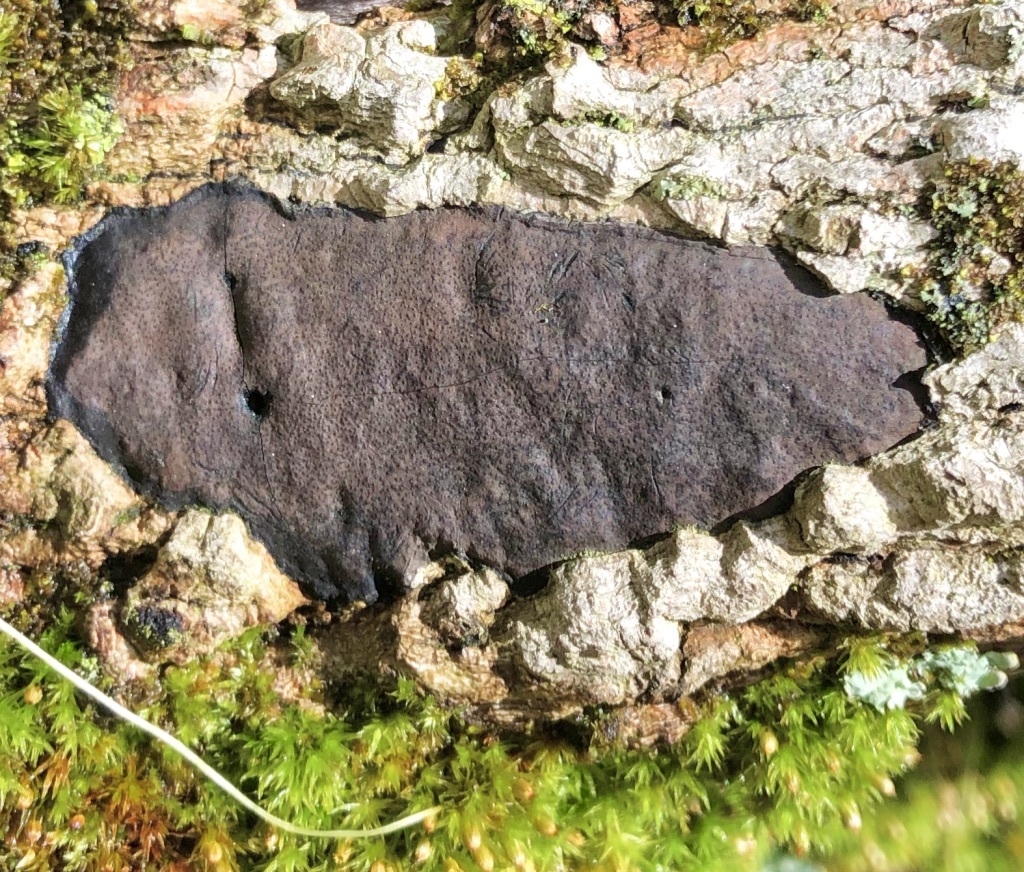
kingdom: Fungi
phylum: Ascomycota
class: Sordariomycetes
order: Xylariales
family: Diatrypaceae
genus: Diatrype
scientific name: Diatrype stigma
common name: Common tarcrust
